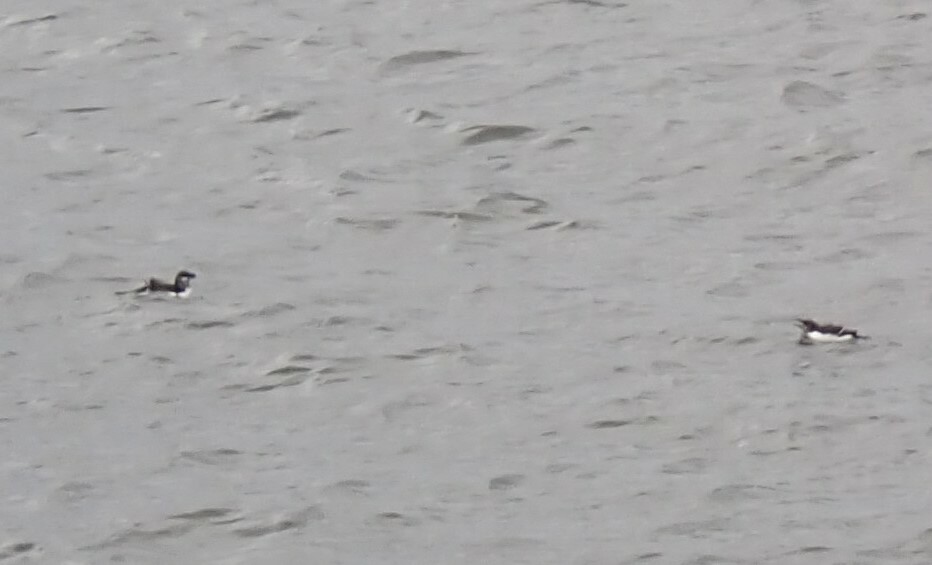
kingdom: Animalia
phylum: Chordata
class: Aves
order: Charadriiformes
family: Alcidae
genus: Uria
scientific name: Uria aalge
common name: Common murre
